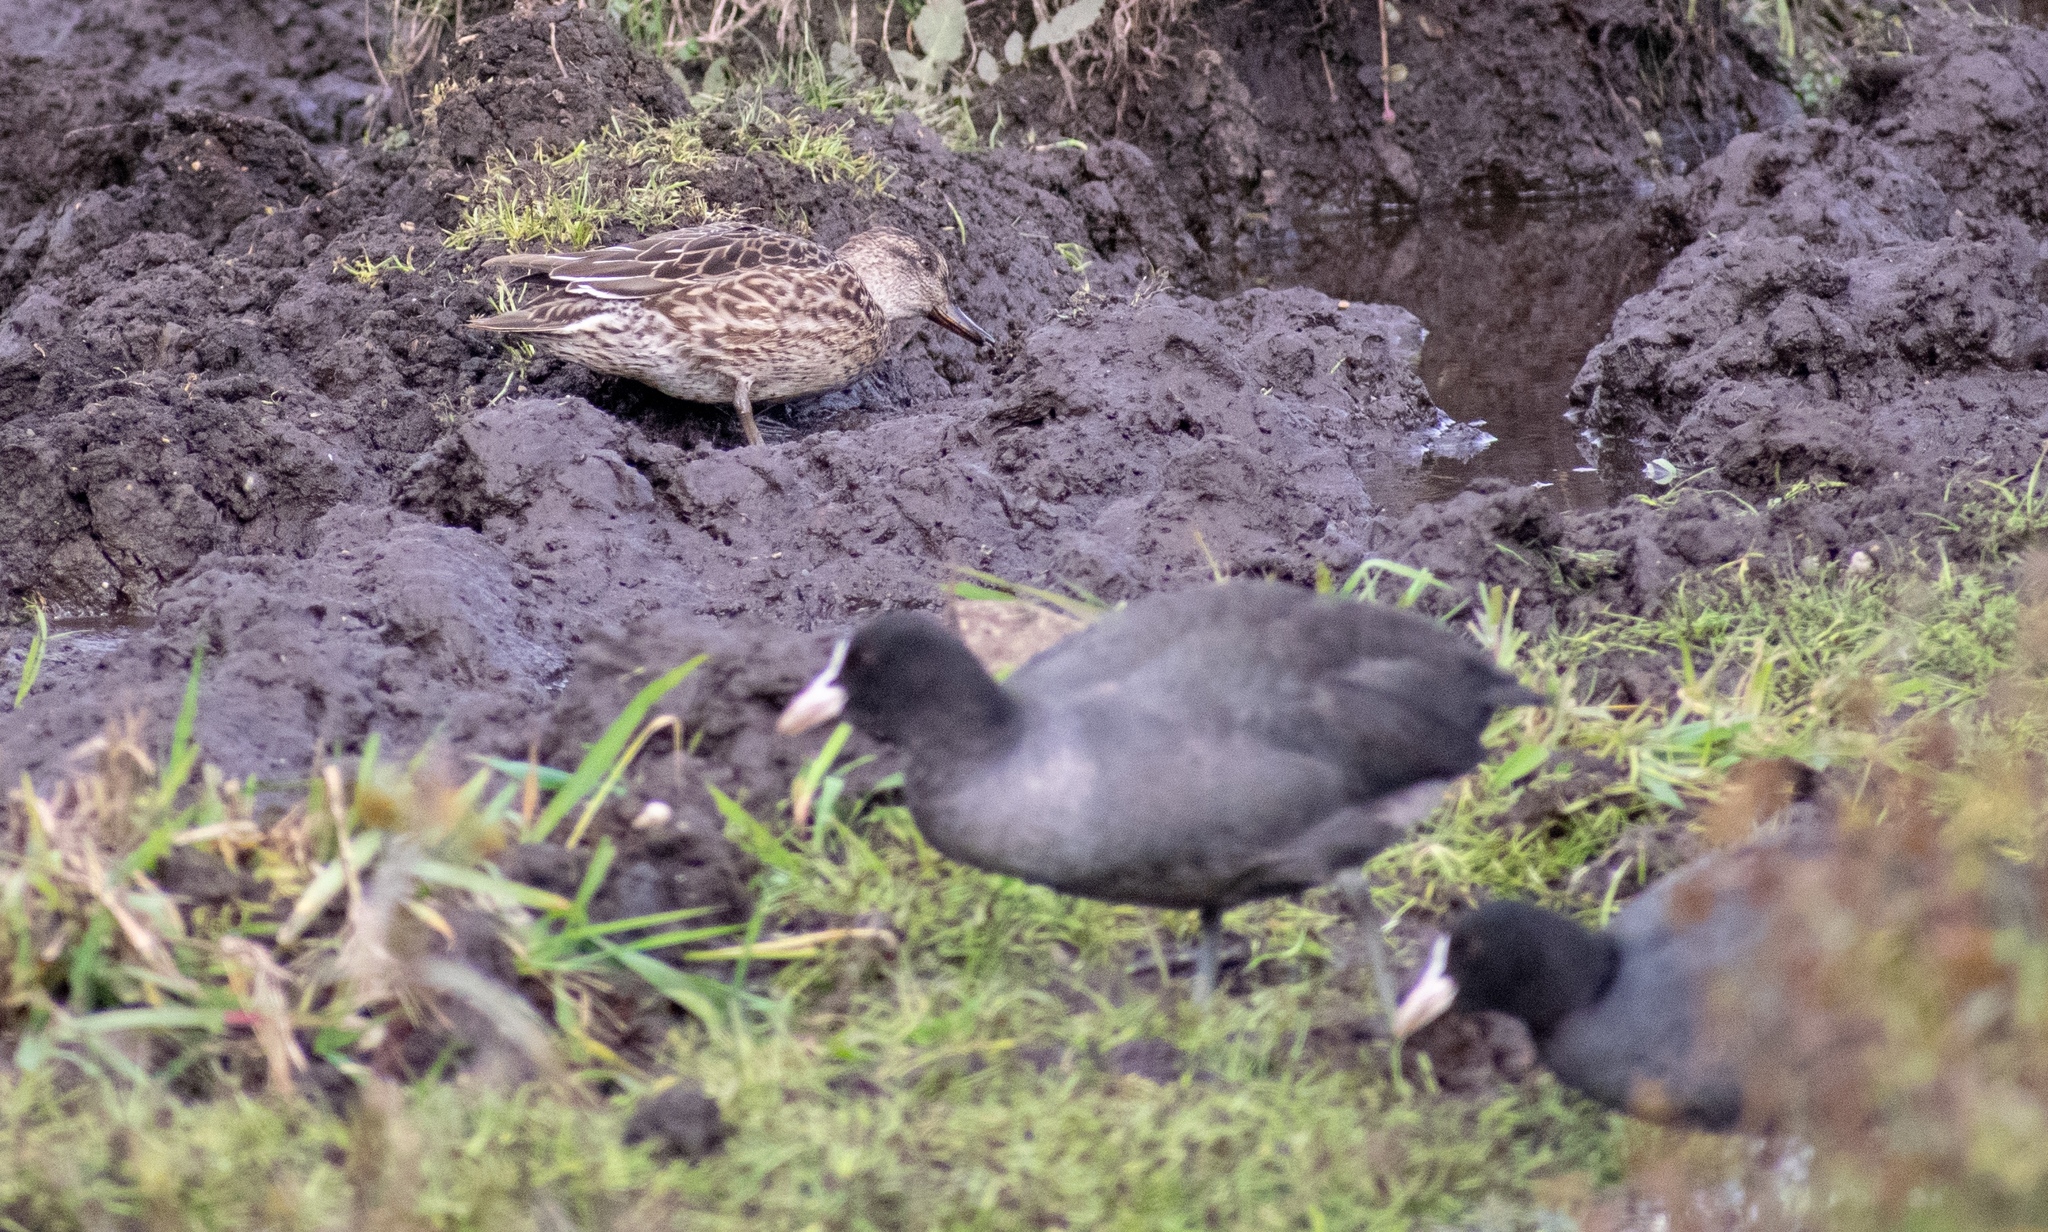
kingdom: Animalia
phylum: Chordata
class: Aves
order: Gruiformes
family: Rallidae
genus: Fulica
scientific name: Fulica atra
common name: Eurasian coot
